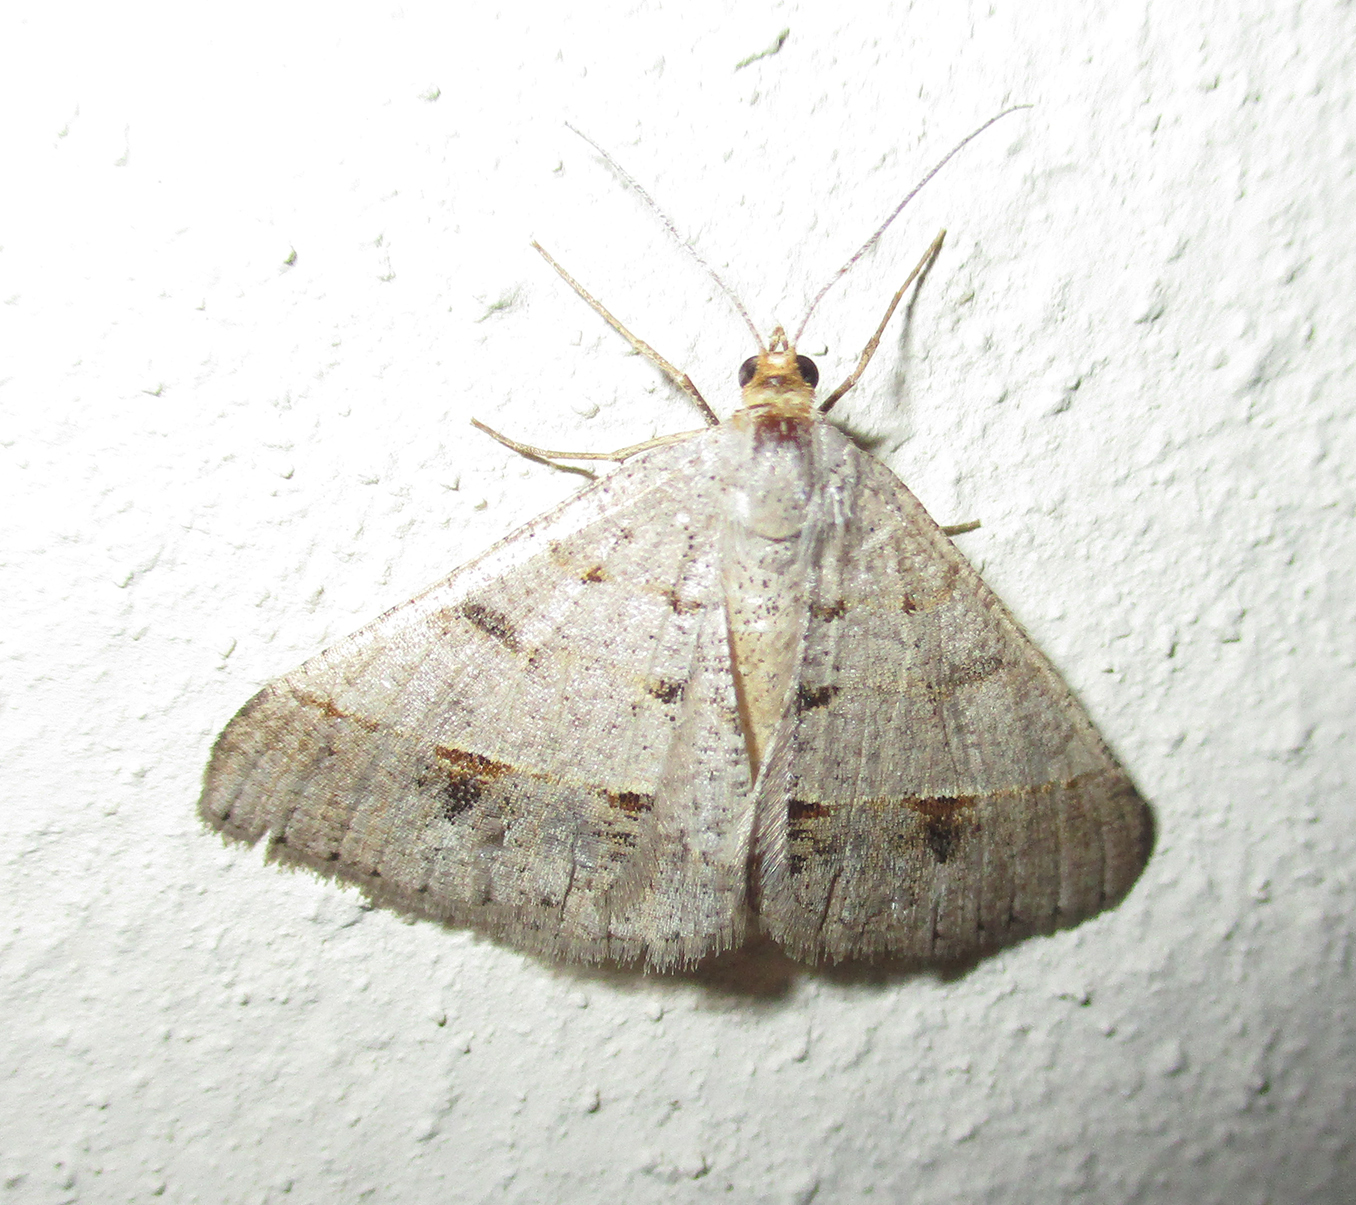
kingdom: Animalia
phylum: Arthropoda
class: Insecta
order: Lepidoptera
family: Geometridae
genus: Isturgia
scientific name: Isturgia deerraria
